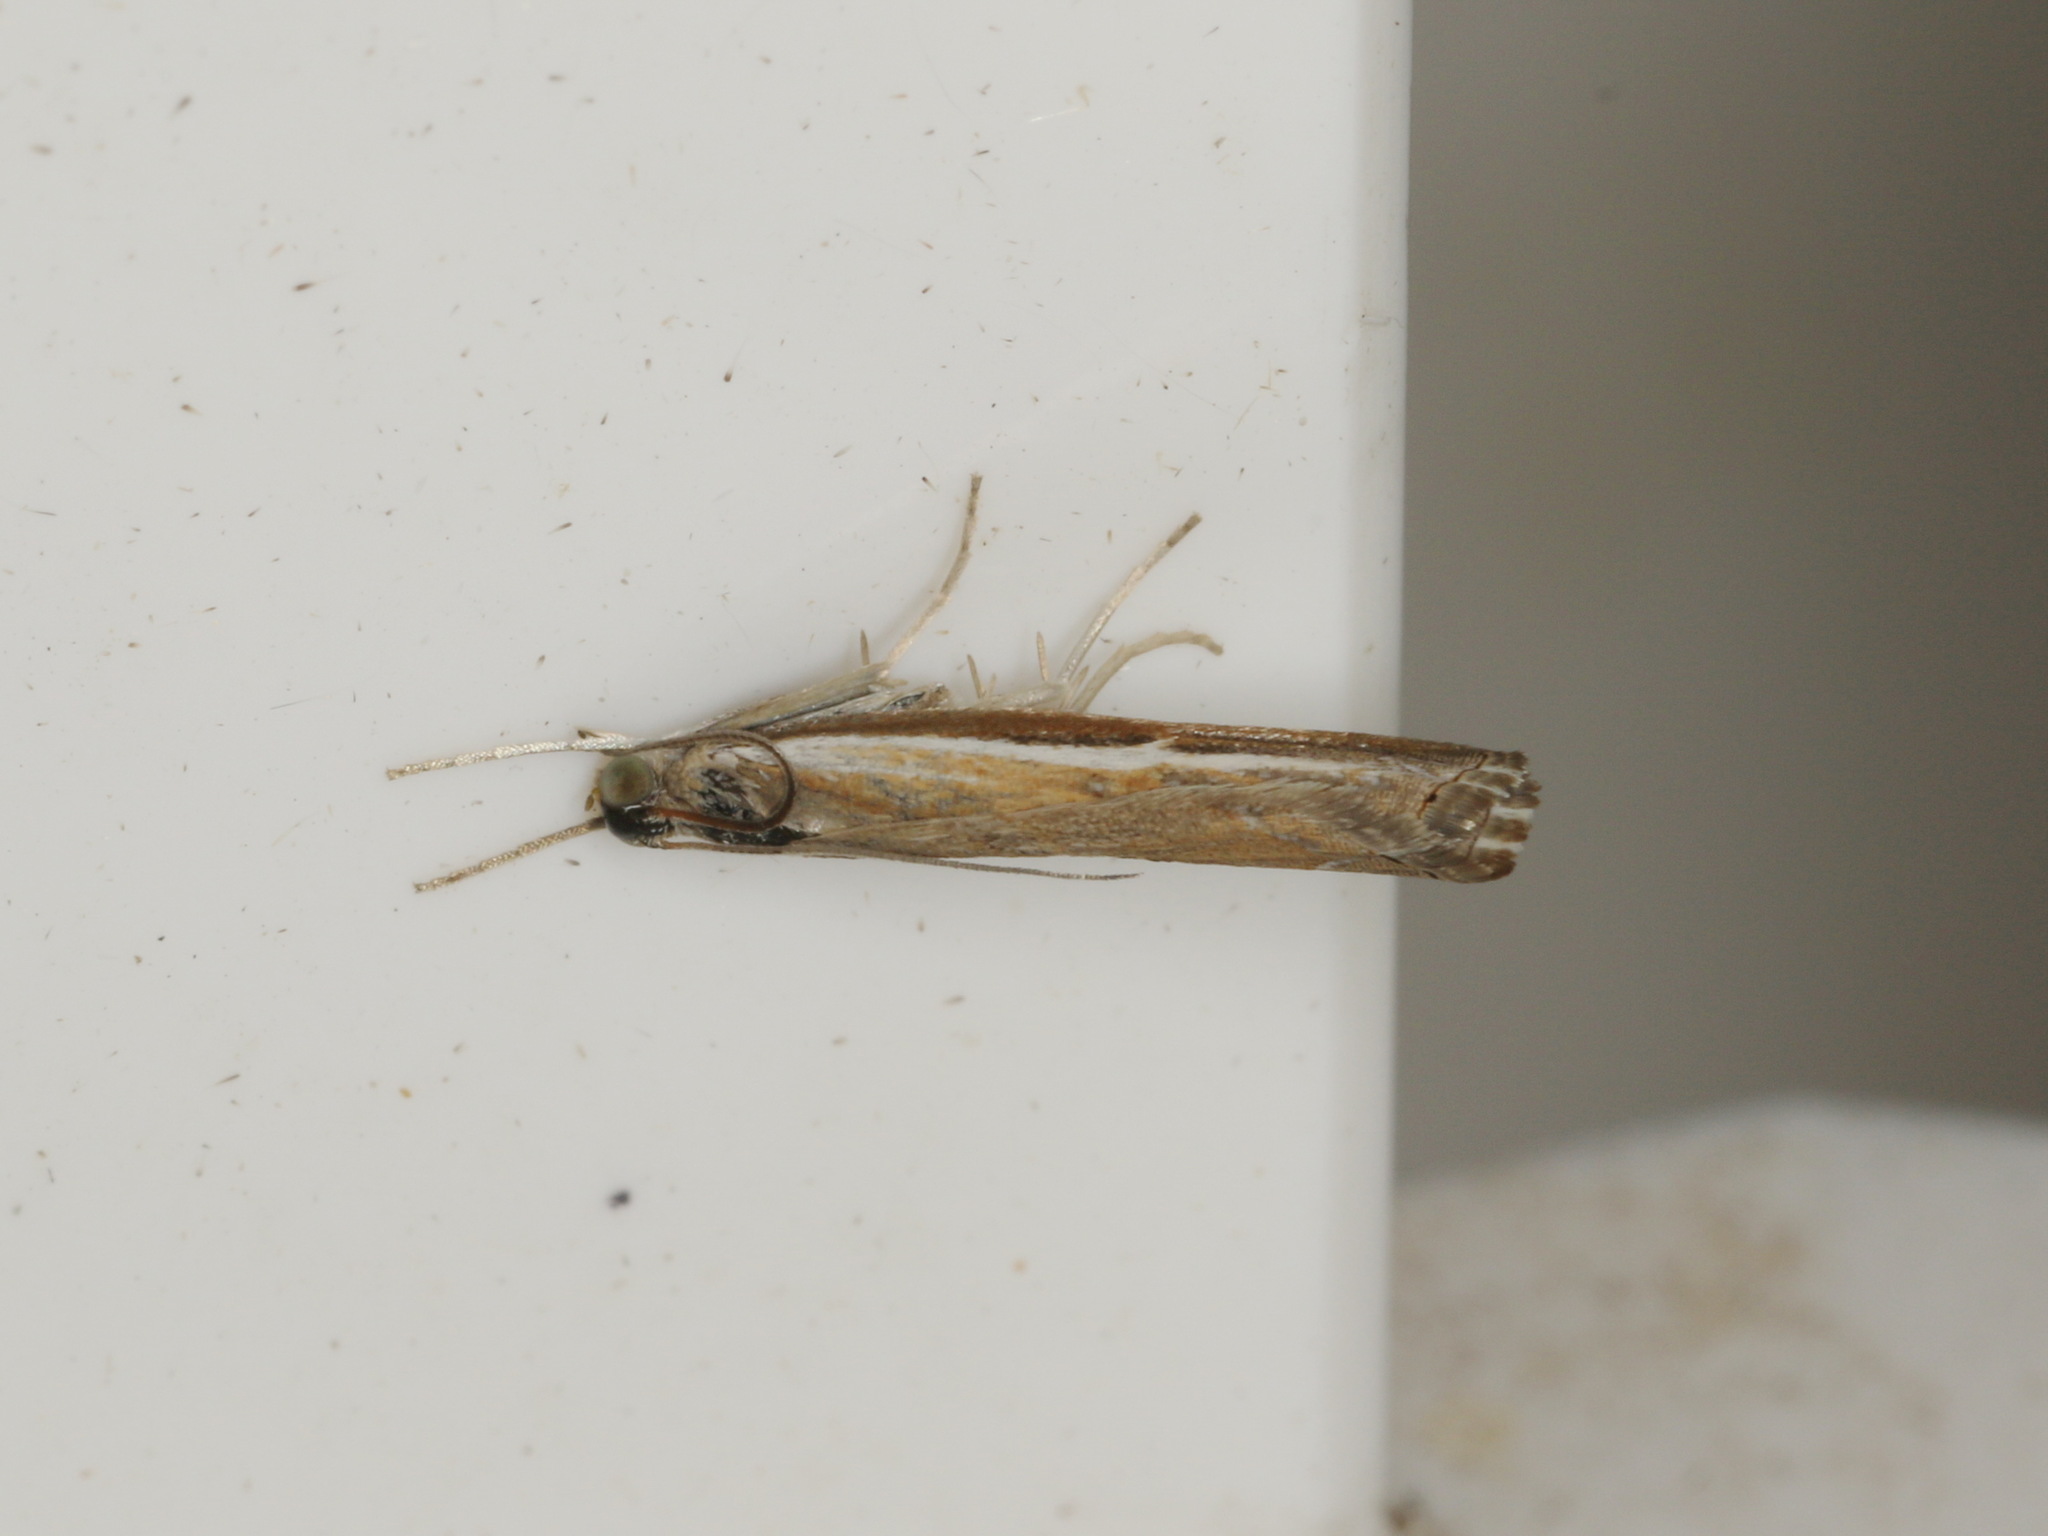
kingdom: Animalia
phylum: Arthropoda
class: Insecta
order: Lepidoptera
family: Crambidae
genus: Ptochostola
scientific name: Ptochostola microphaeellus
